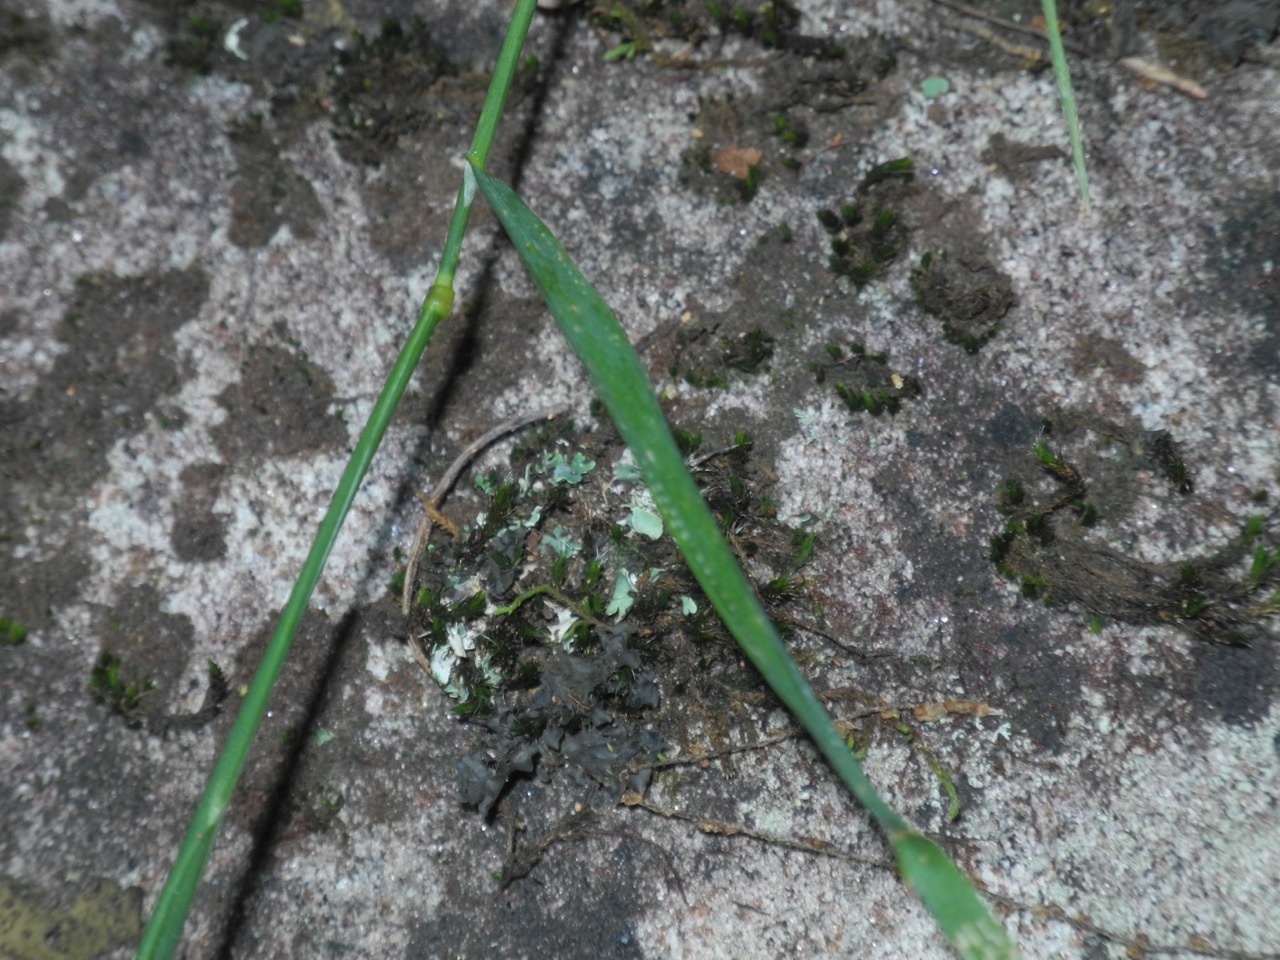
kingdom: Plantae
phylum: Tracheophyta
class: Liliopsida
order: Poales
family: Poaceae
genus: Agrostis
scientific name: Agrostis perennans
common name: Autumn bent
